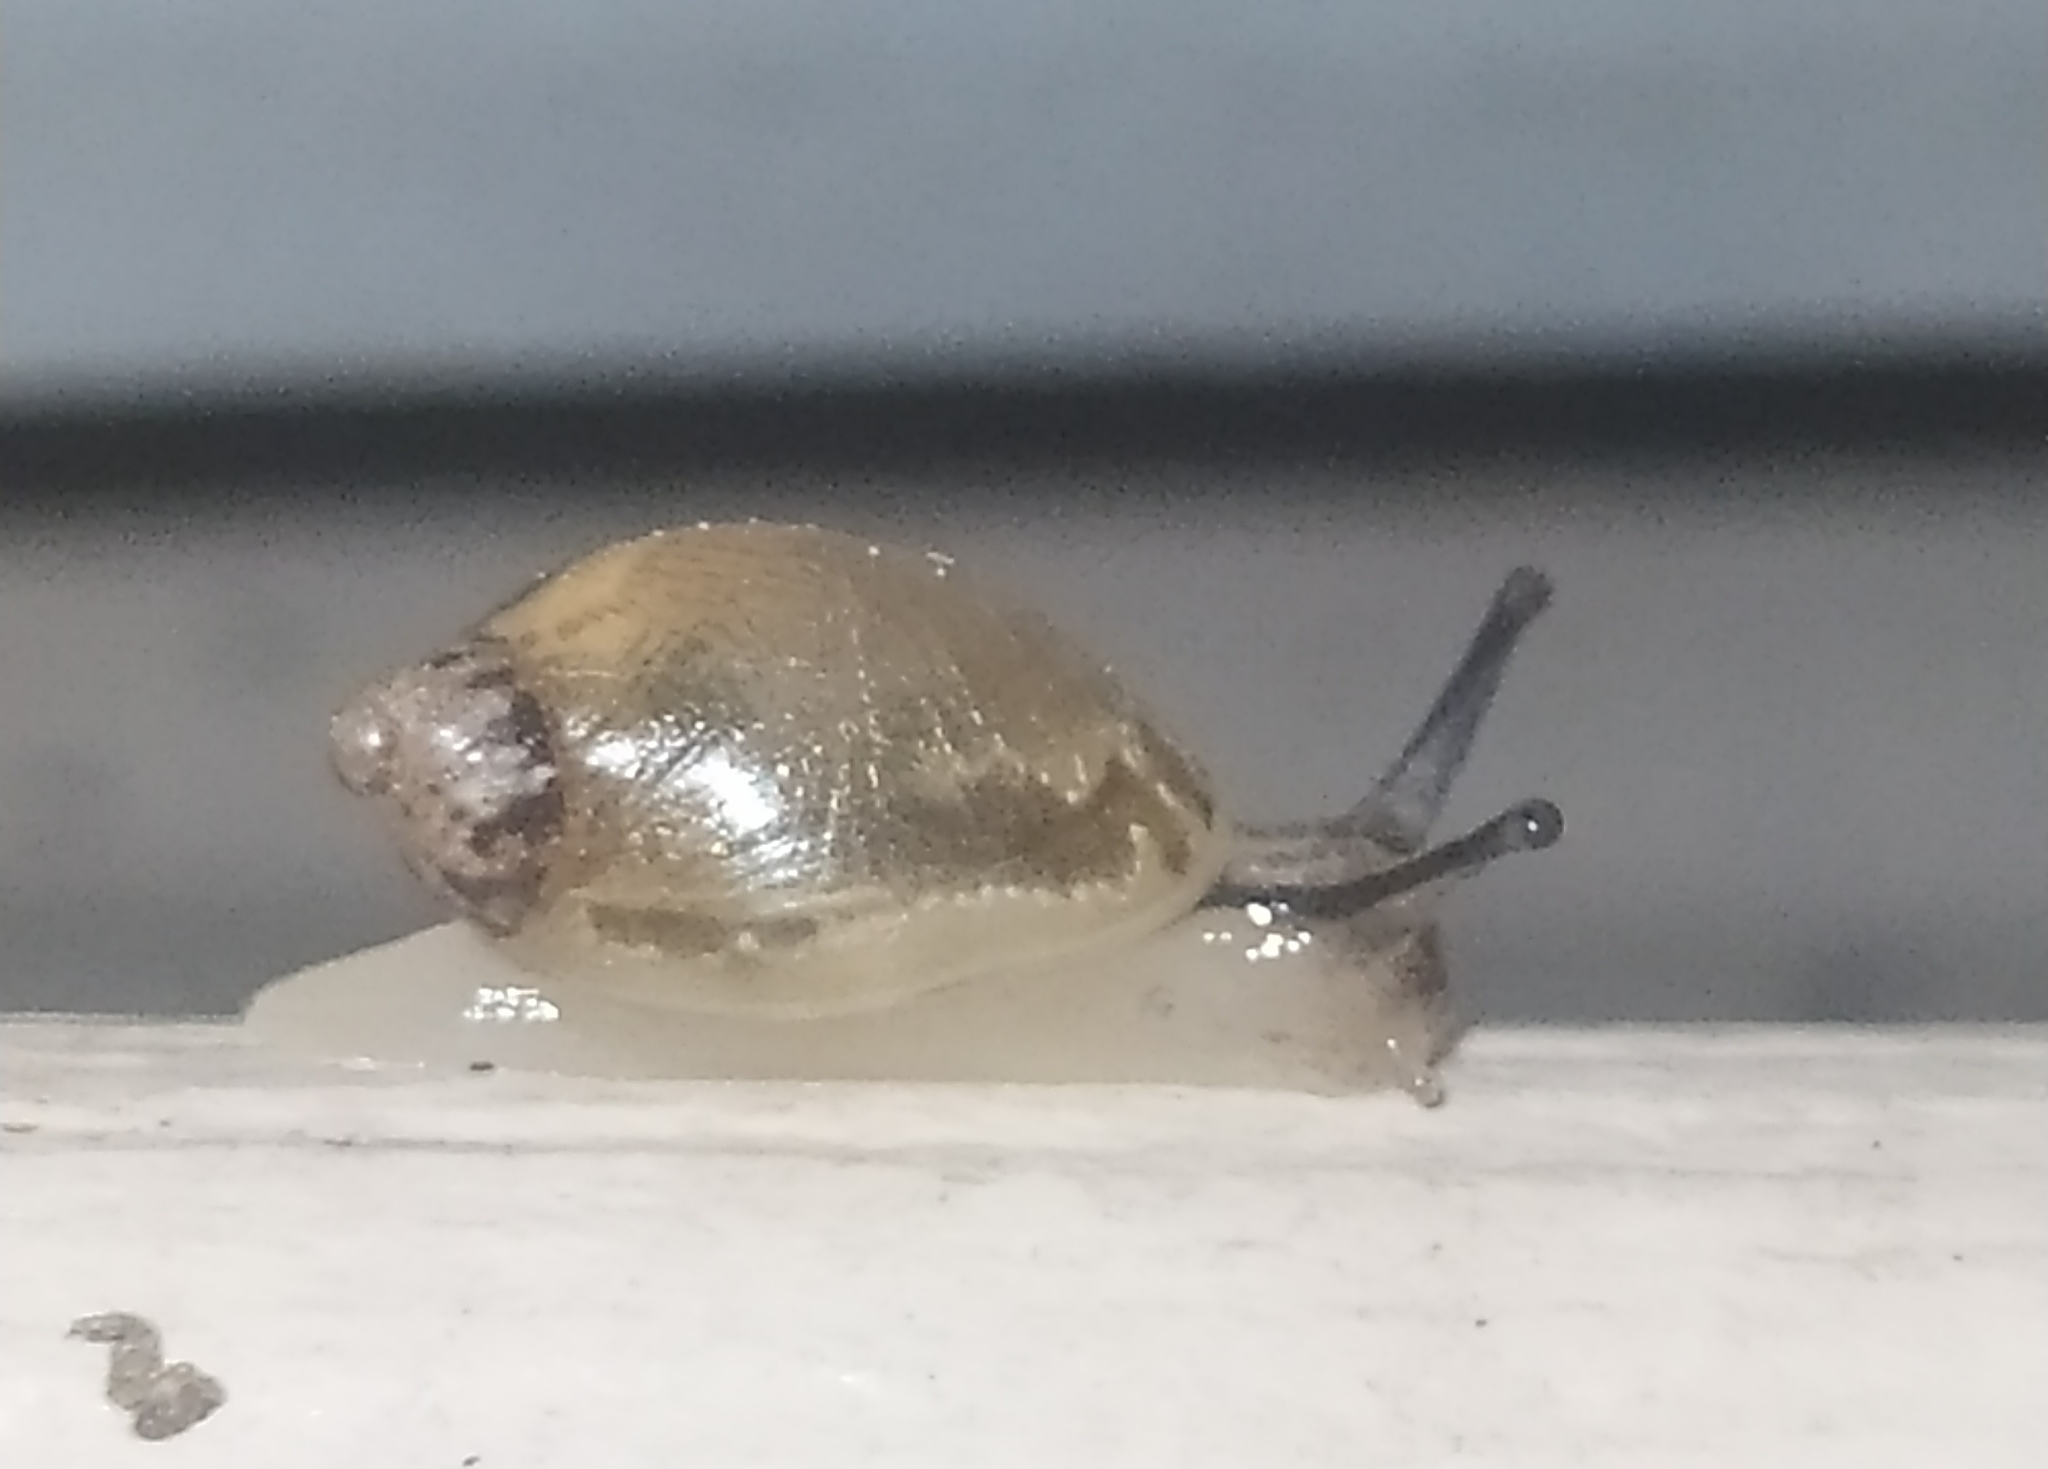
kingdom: Animalia
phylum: Mollusca
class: Gastropoda
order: Stylommatophora
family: Succineidae
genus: Succinea
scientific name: Succinea putris
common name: European ambersnail
